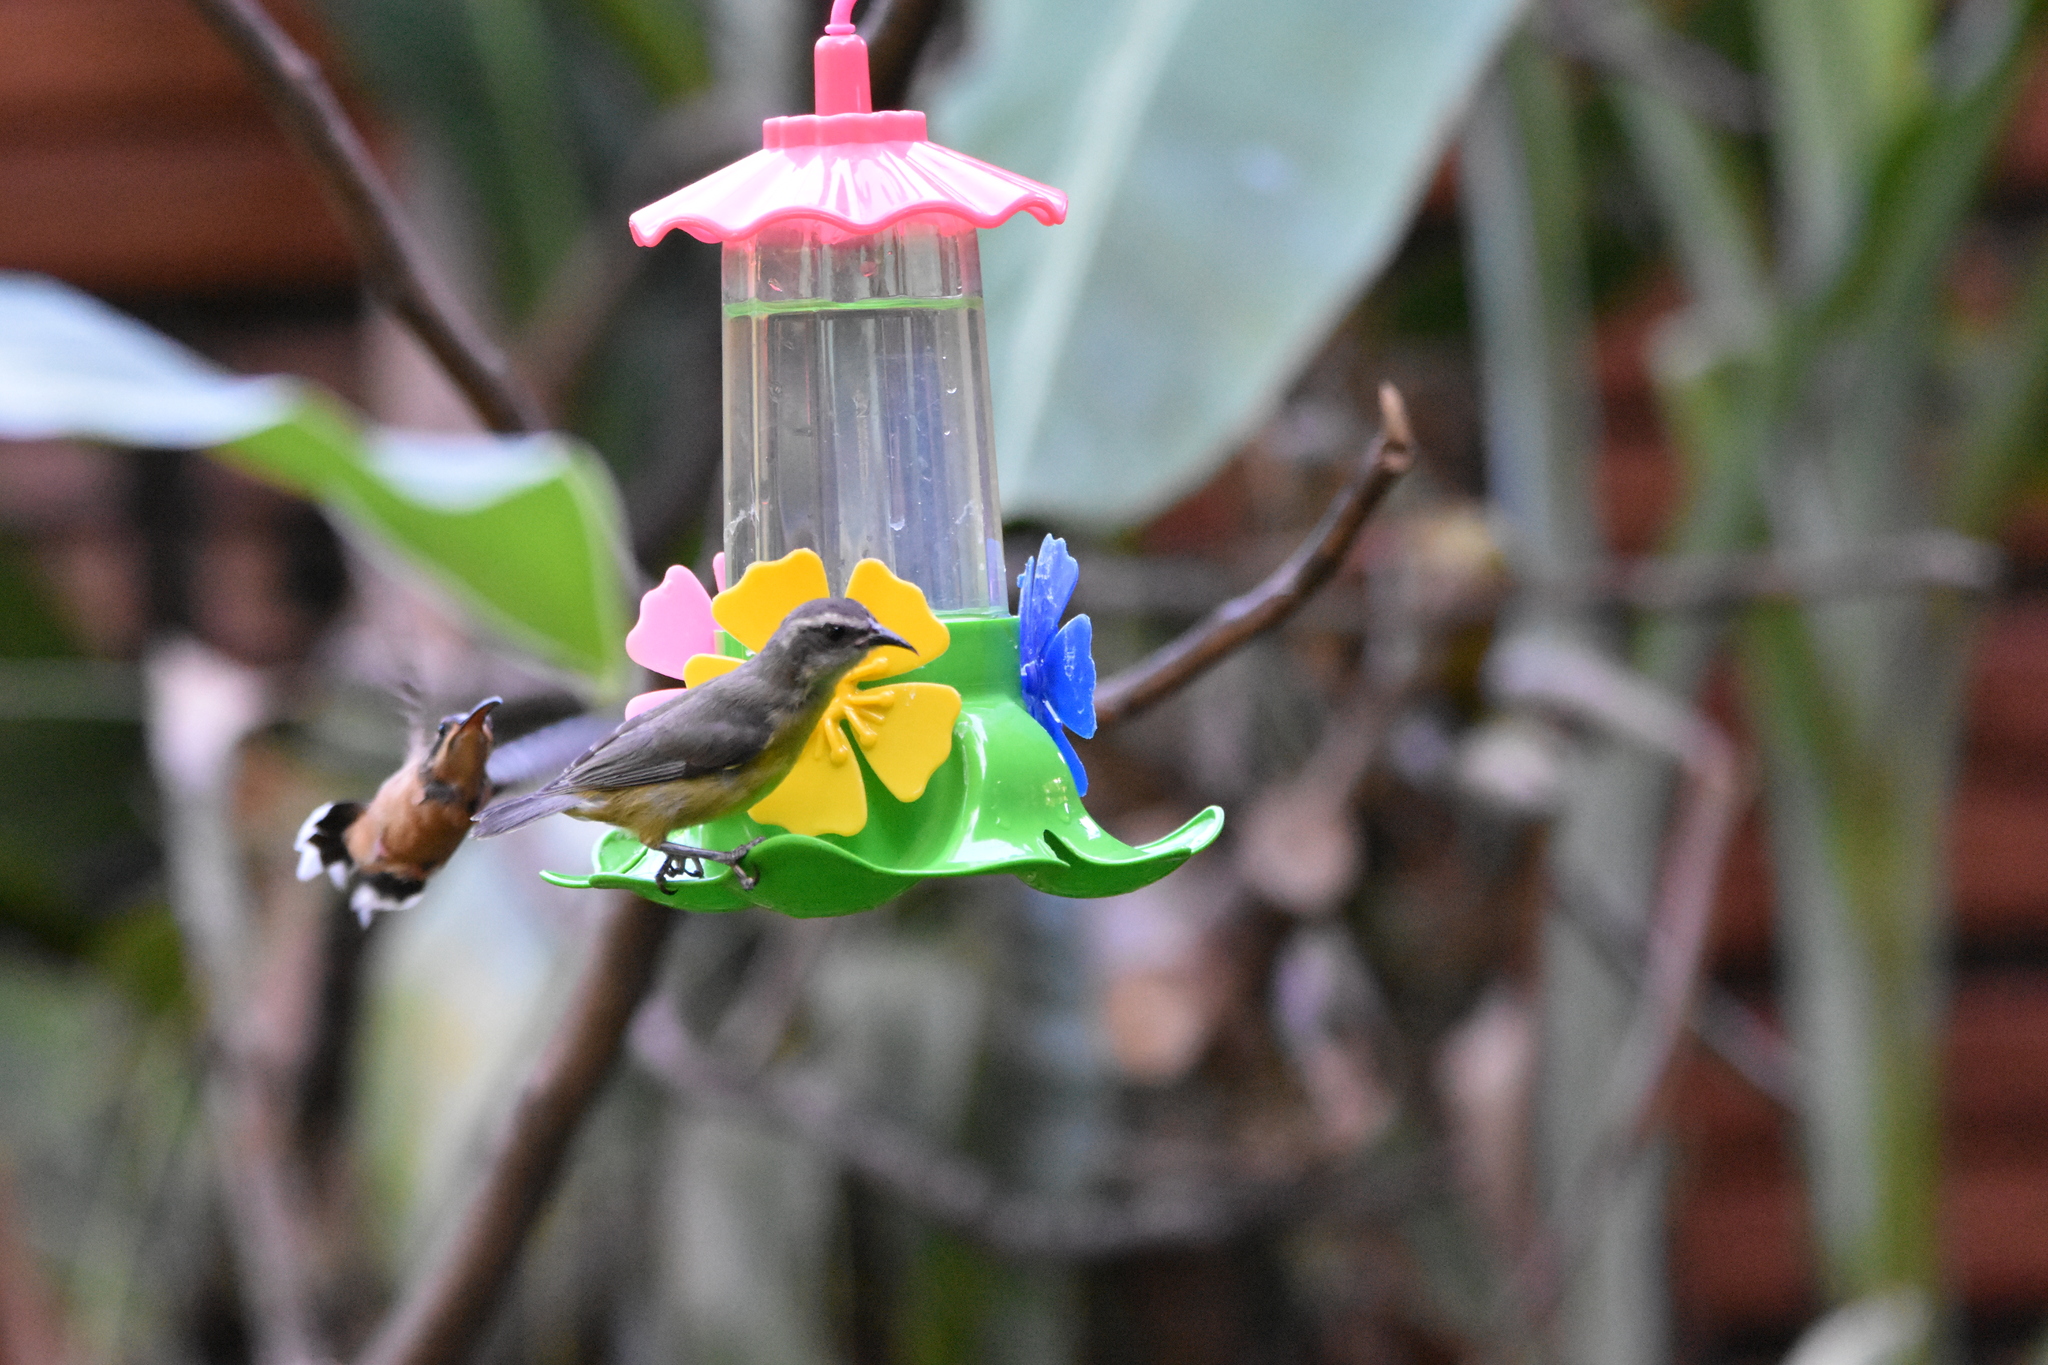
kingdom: Animalia
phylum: Chordata
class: Aves
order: Passeriformes
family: Thraupidae
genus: Coereba
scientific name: Coereba flaveola
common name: Bananaquit
